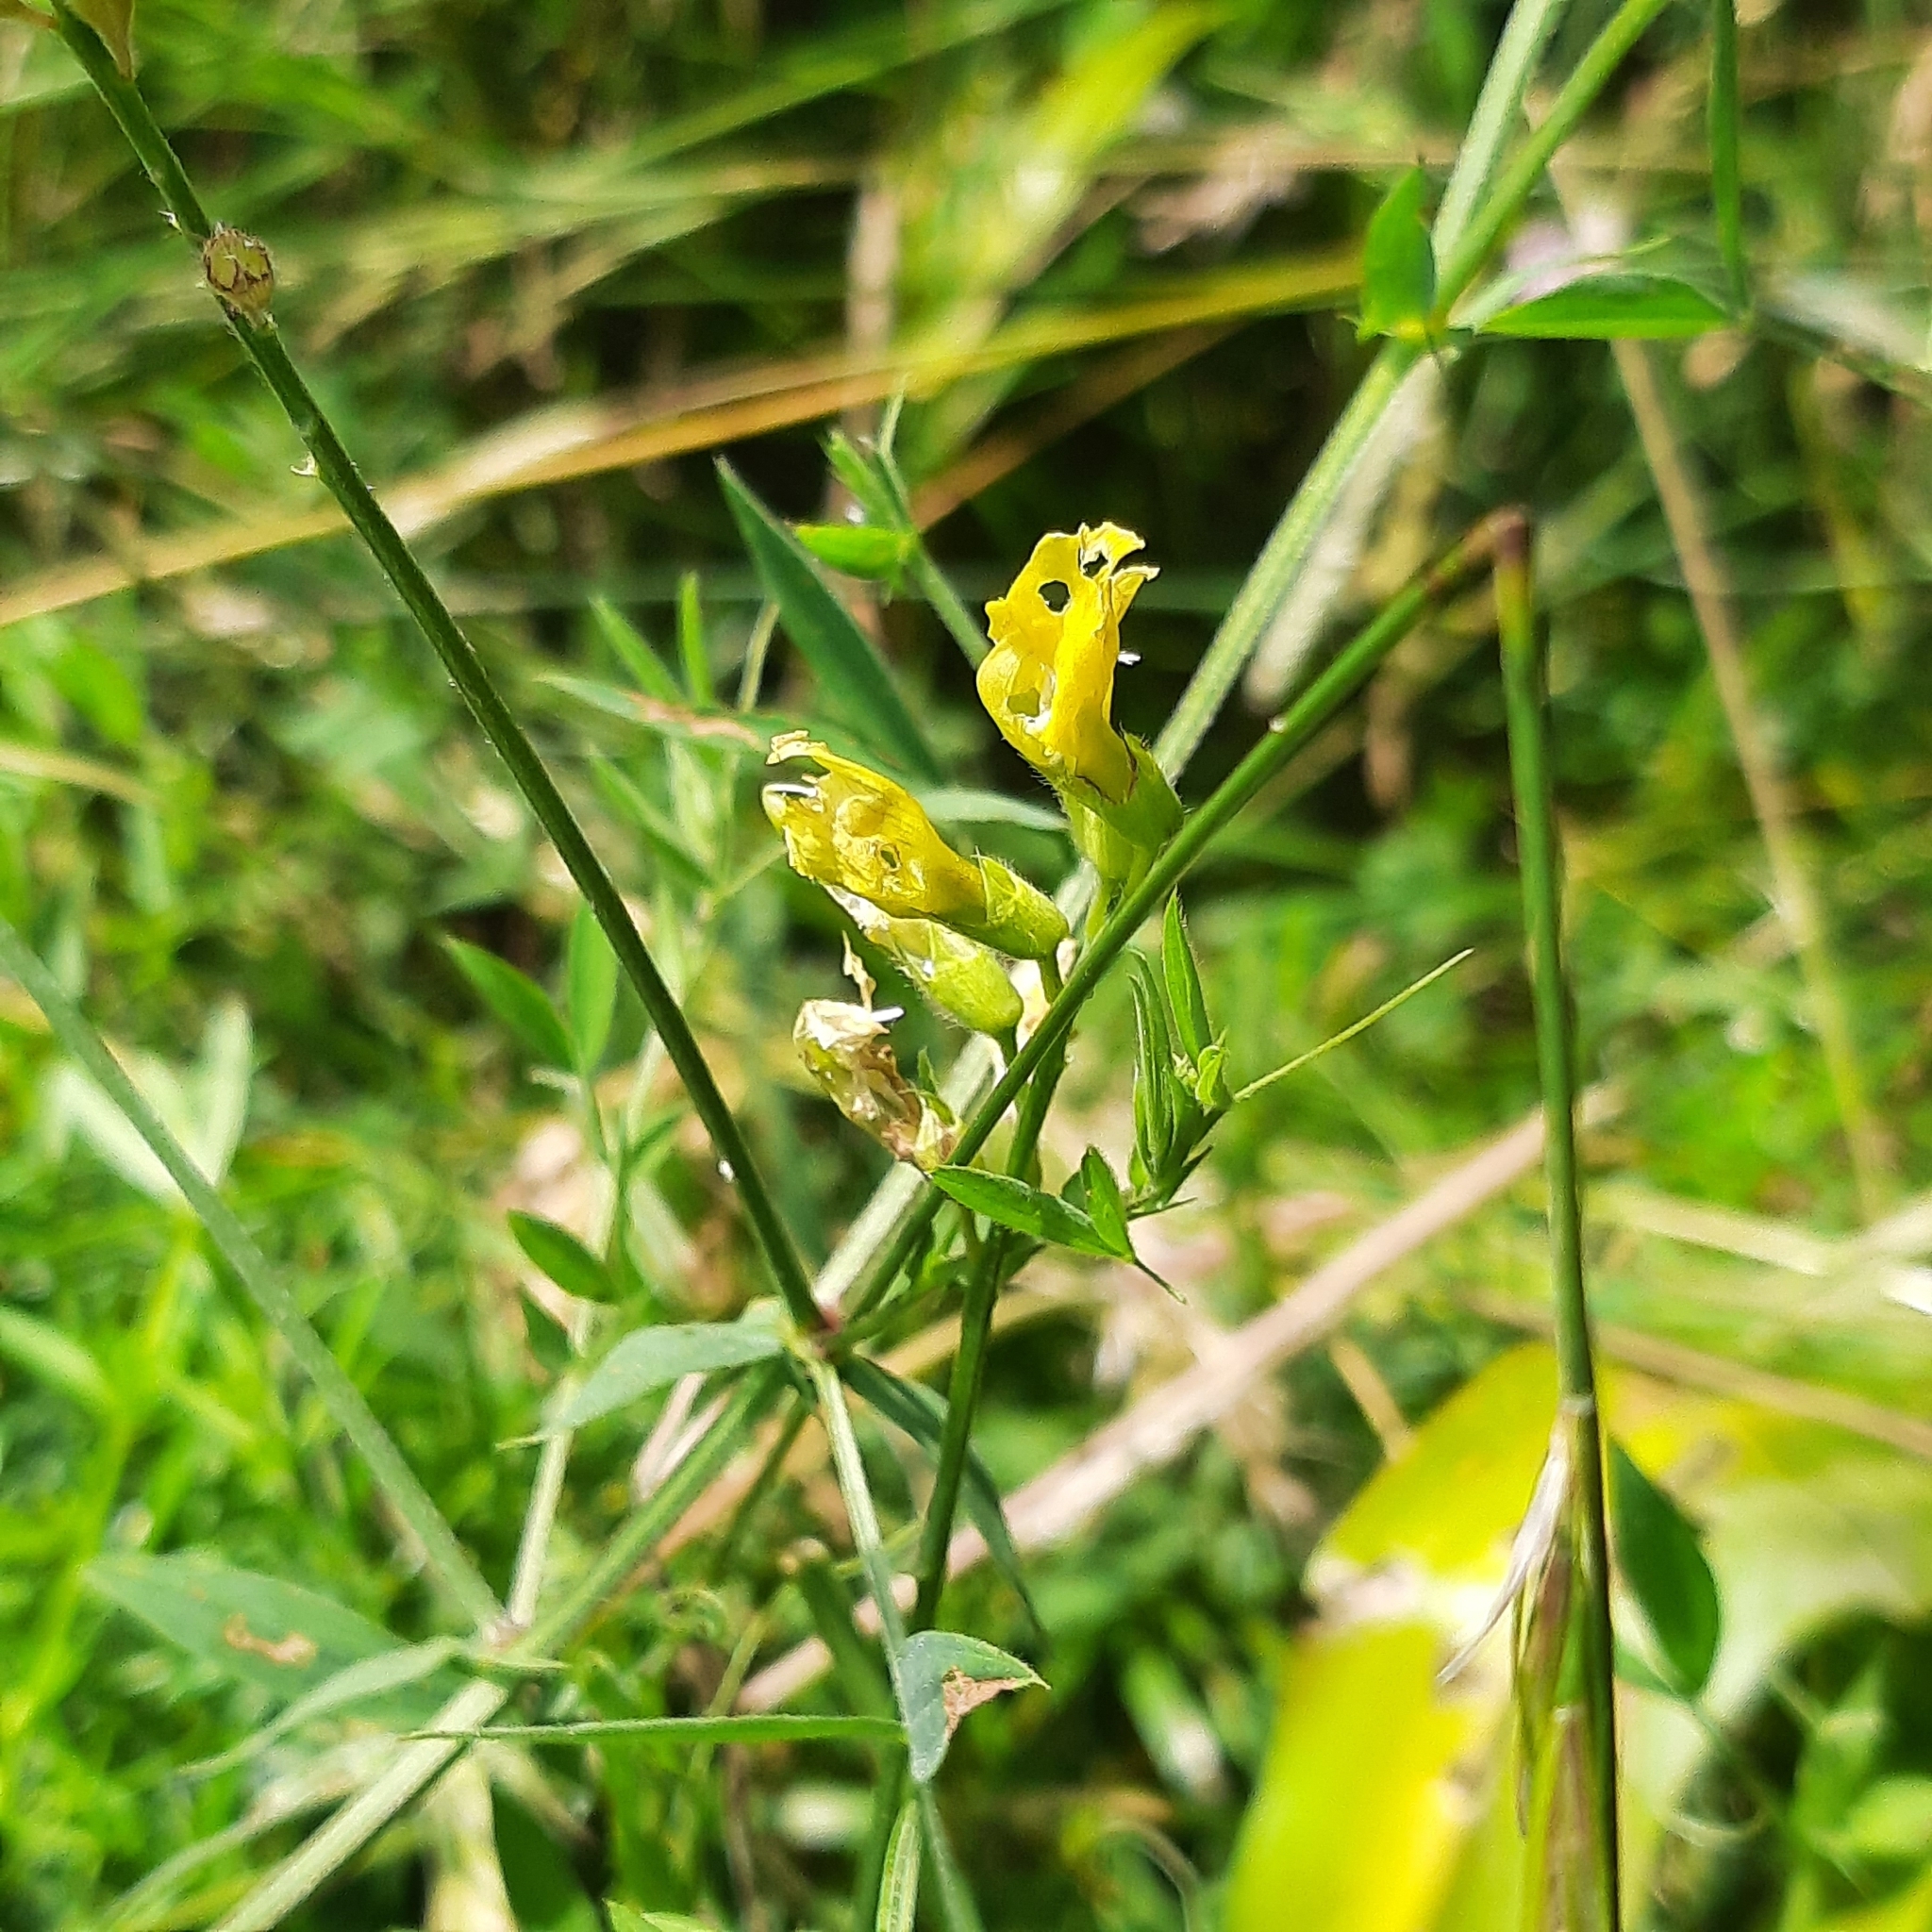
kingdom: Plantae
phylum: Tracheophyta
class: Magnoliopsida
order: Fabales
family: Fabaceae
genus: Lathyrus
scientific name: Lathyrus pratensis
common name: Meadow vetchling
